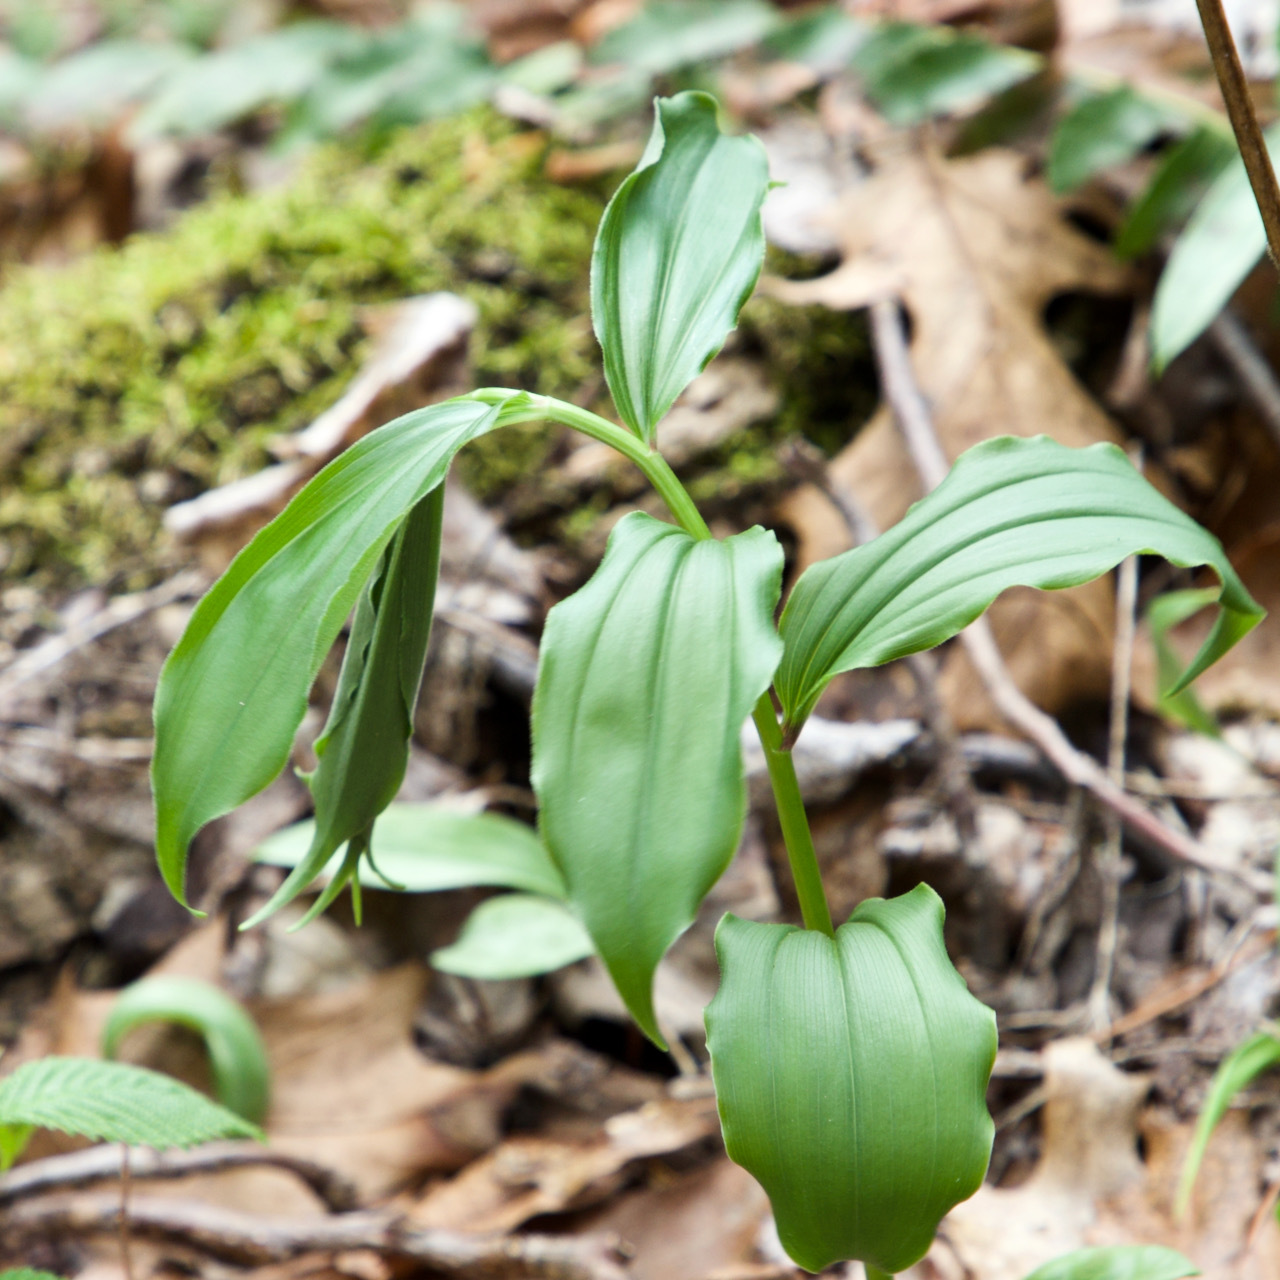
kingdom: Plantae
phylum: Tracheophyta
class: Liliopsida
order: Asparagales
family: Asparagaceae
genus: Maianthemum
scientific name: Maianthemum racemosum
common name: False spikenard
